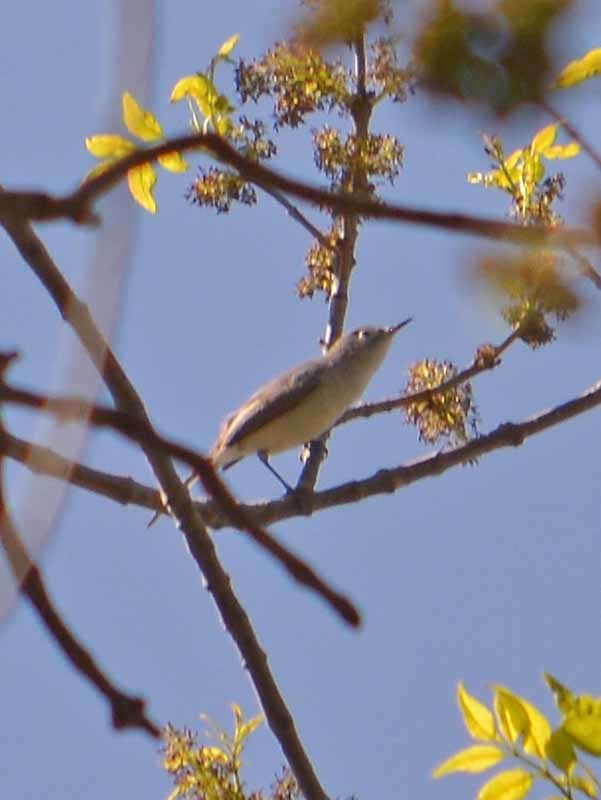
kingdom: Animalia
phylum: Chordata
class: Aves
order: Passeriformes
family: Polioptilidae
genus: Polioptila
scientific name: Polioptila caerulea
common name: Blue-gray gnatcatcher
